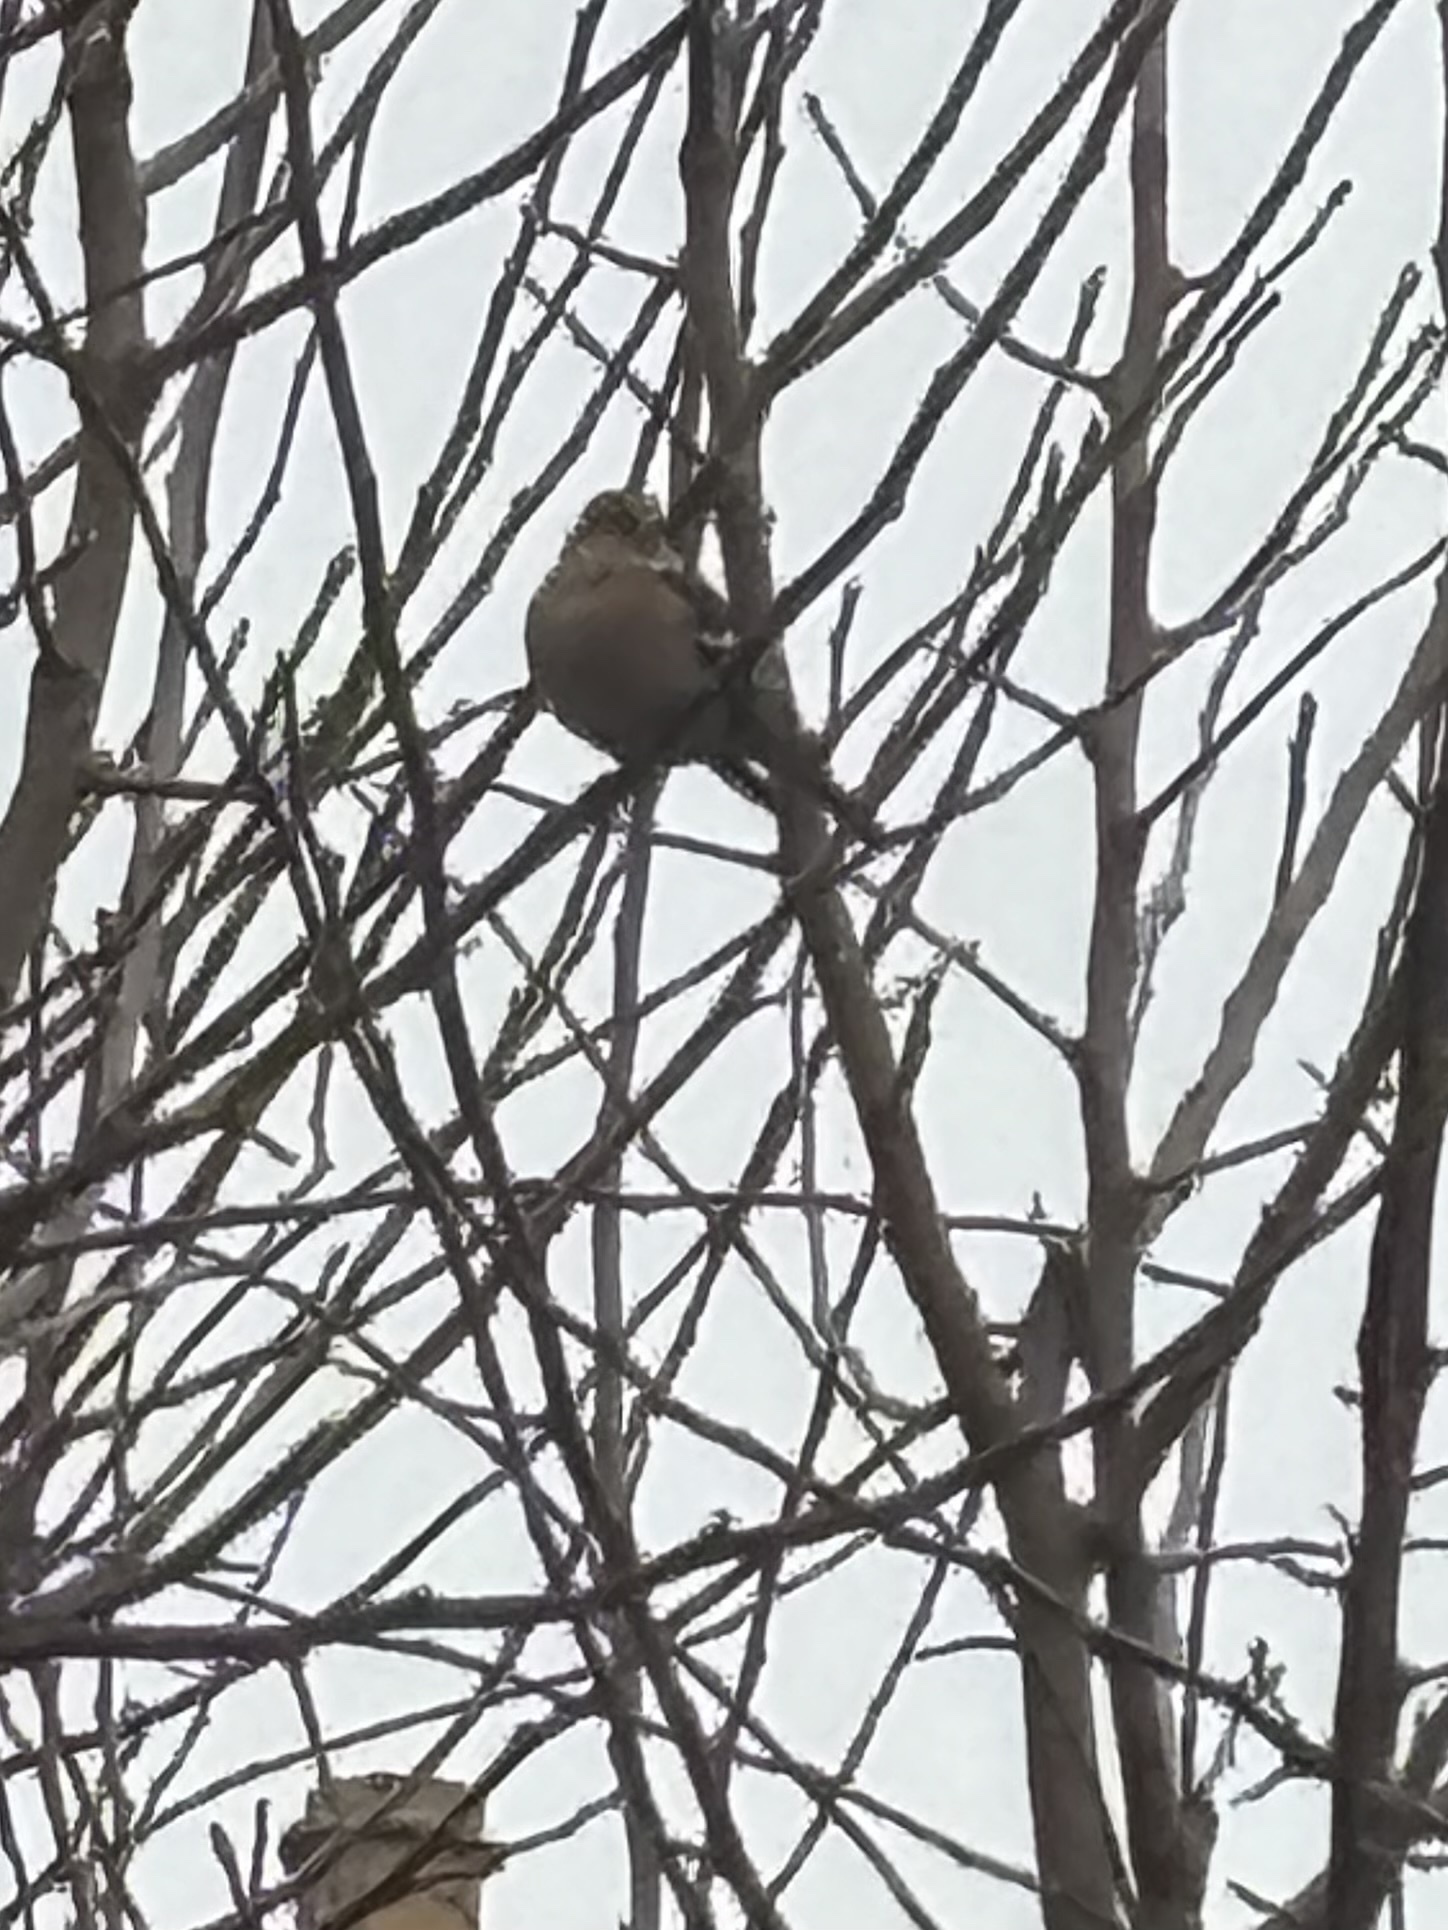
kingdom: Animalia
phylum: Chordata
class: Aves
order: Passeriformes
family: Fringillidae
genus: Fringilla
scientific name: Fringilla coelebs
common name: Common chaffinch
